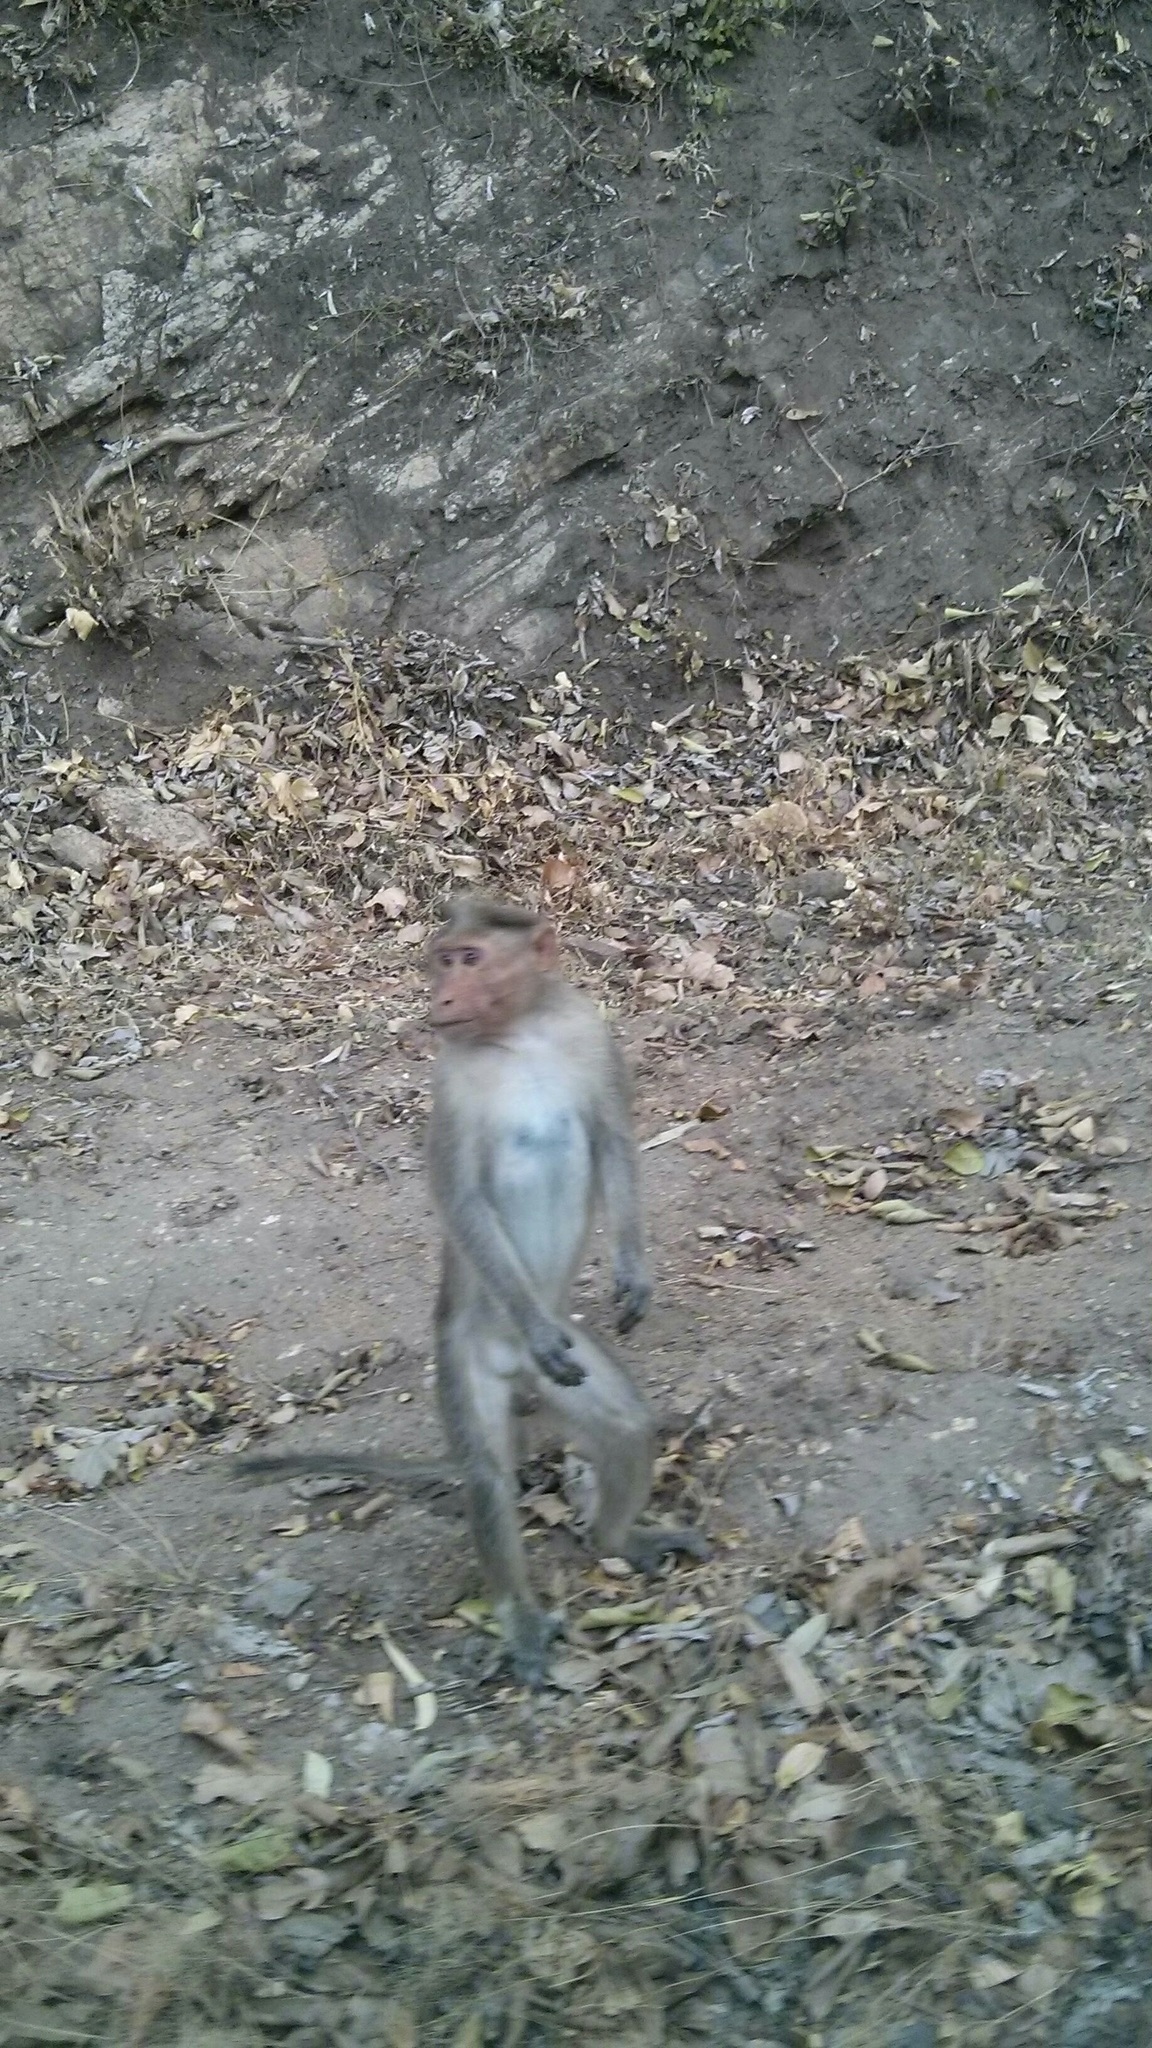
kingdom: Animalia
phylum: Chordata
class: Mammalia
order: Primates
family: Cercopithecidae
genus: Macaca
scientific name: Macaca radiata
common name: Bonnet macaque
